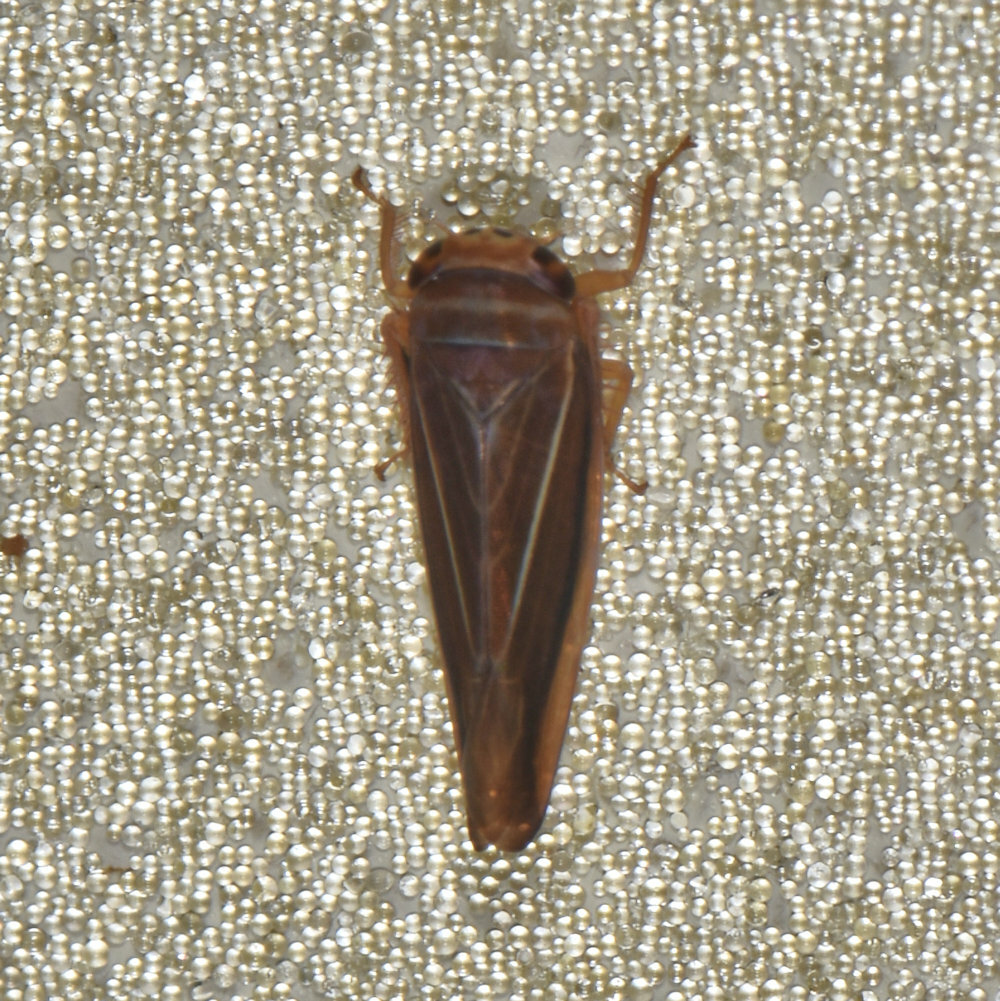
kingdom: Animalia
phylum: Arthropoda
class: Insecta
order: Hemiptera
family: Cicadellidae
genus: Idiodonus
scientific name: Idiodonus kennicotti
